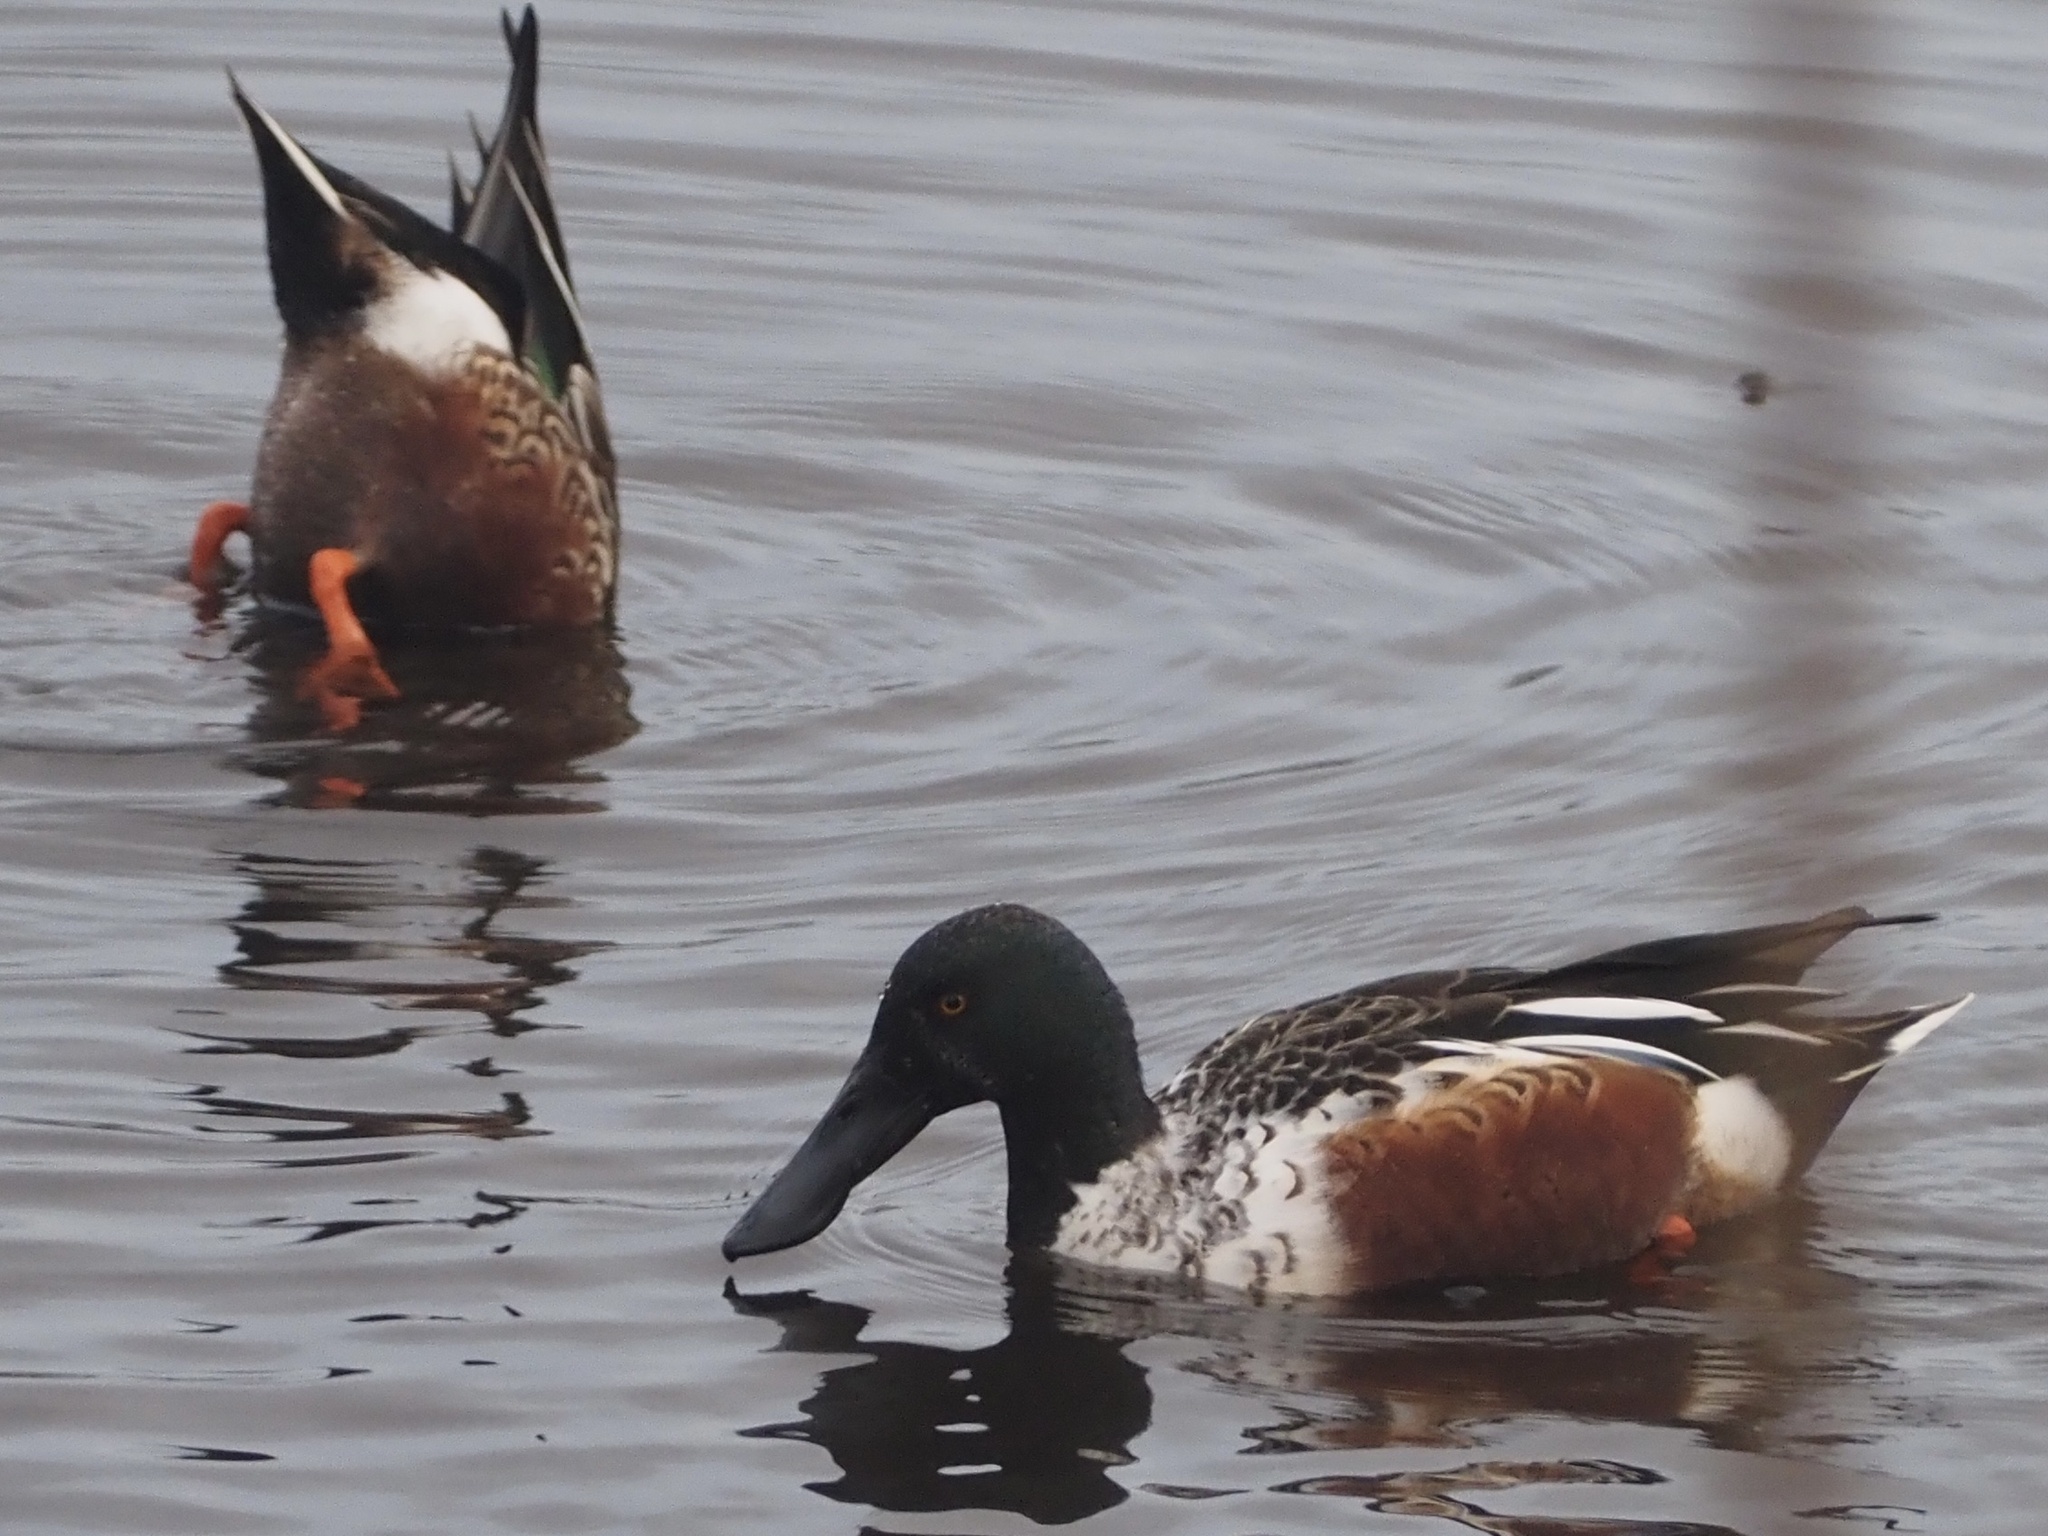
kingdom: Animalia
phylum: Chordata
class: Aves
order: Anseriformes
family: Anatidae
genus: Spatula
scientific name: Spatula clypeata
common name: Northern shoveler
